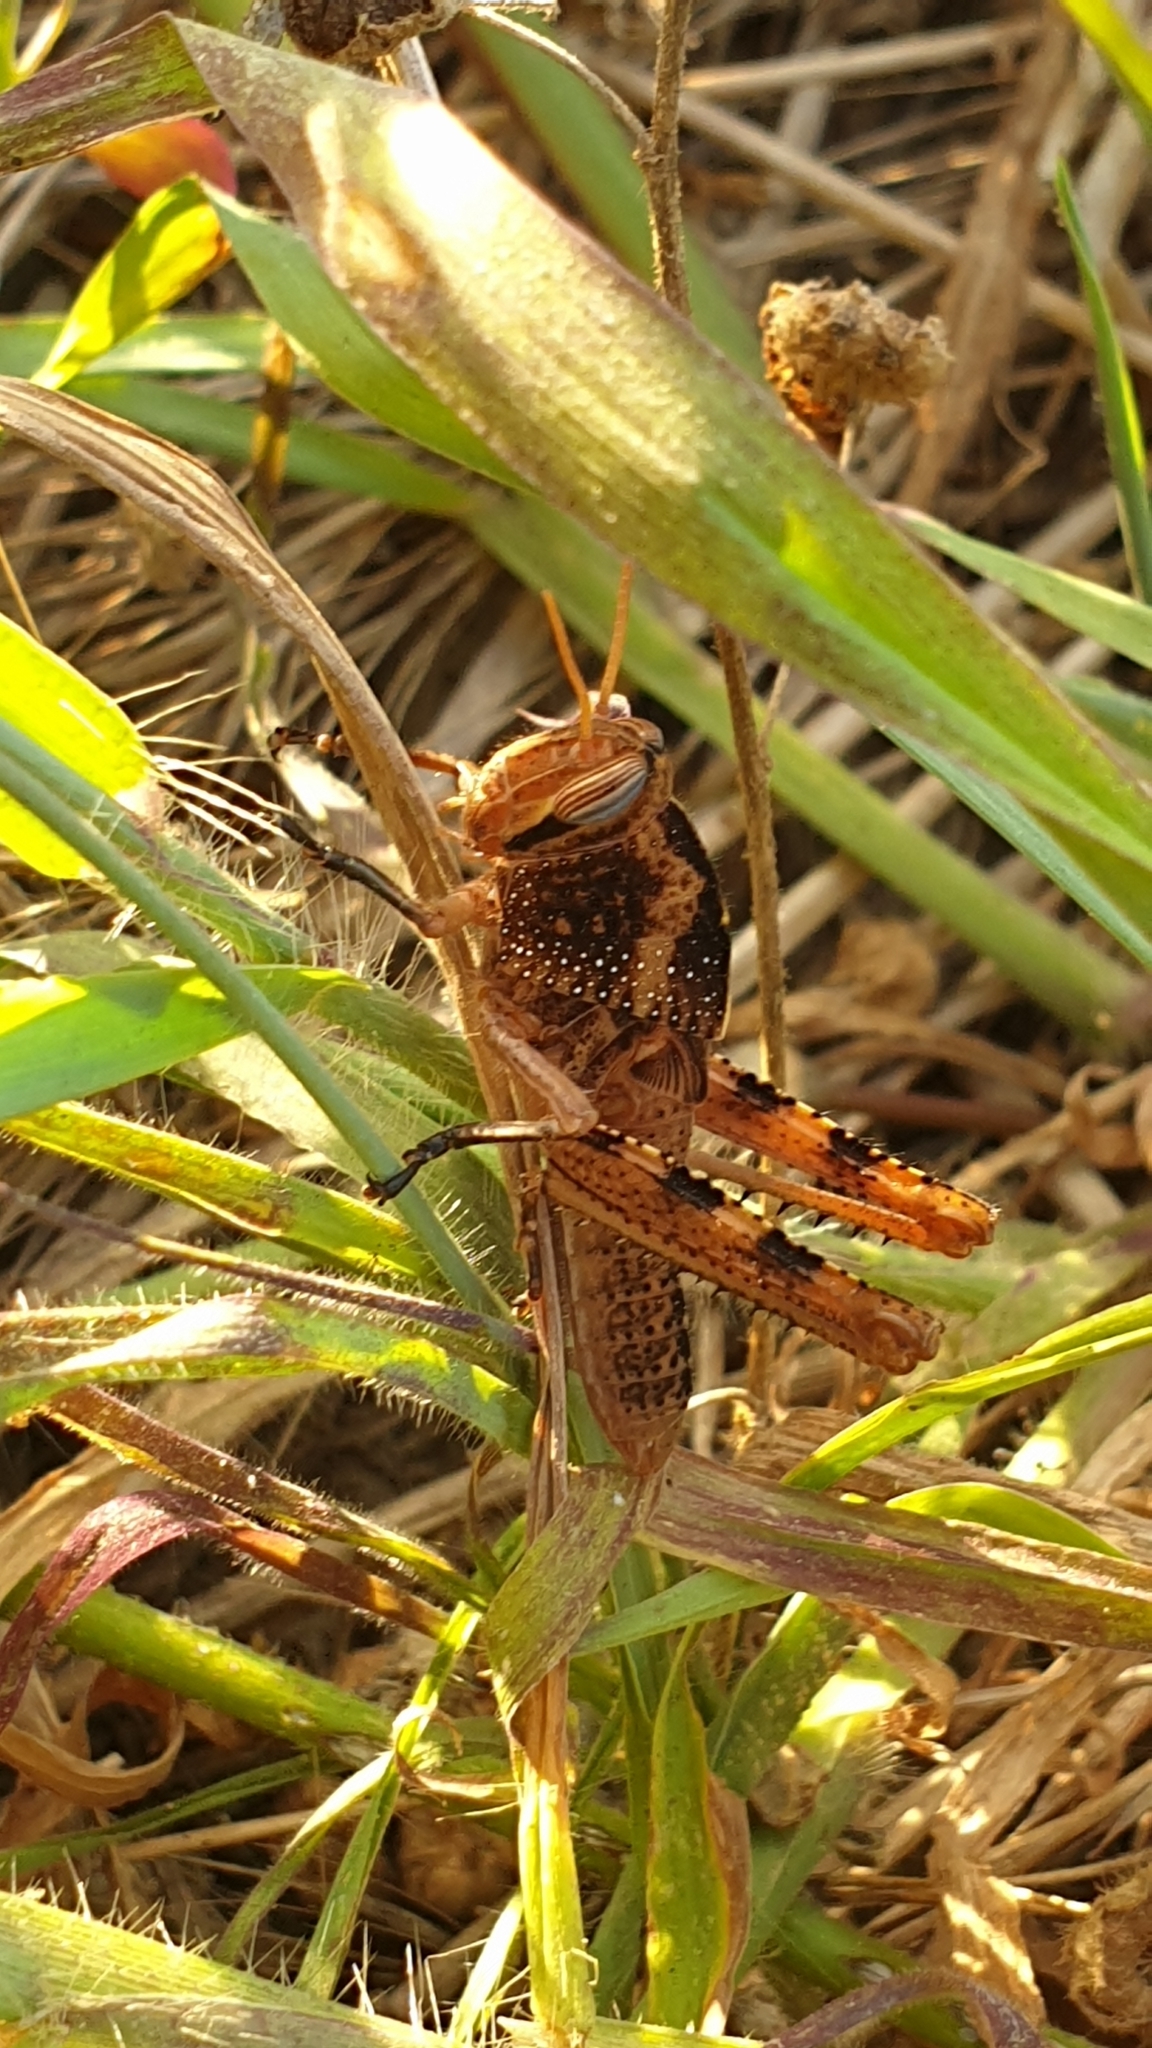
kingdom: Animalia
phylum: Arthropoda
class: Insecta
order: Orthoptera
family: Acrididae
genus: Anacridium
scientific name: Anacridium aegyptium
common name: Egyptian grasshopper
